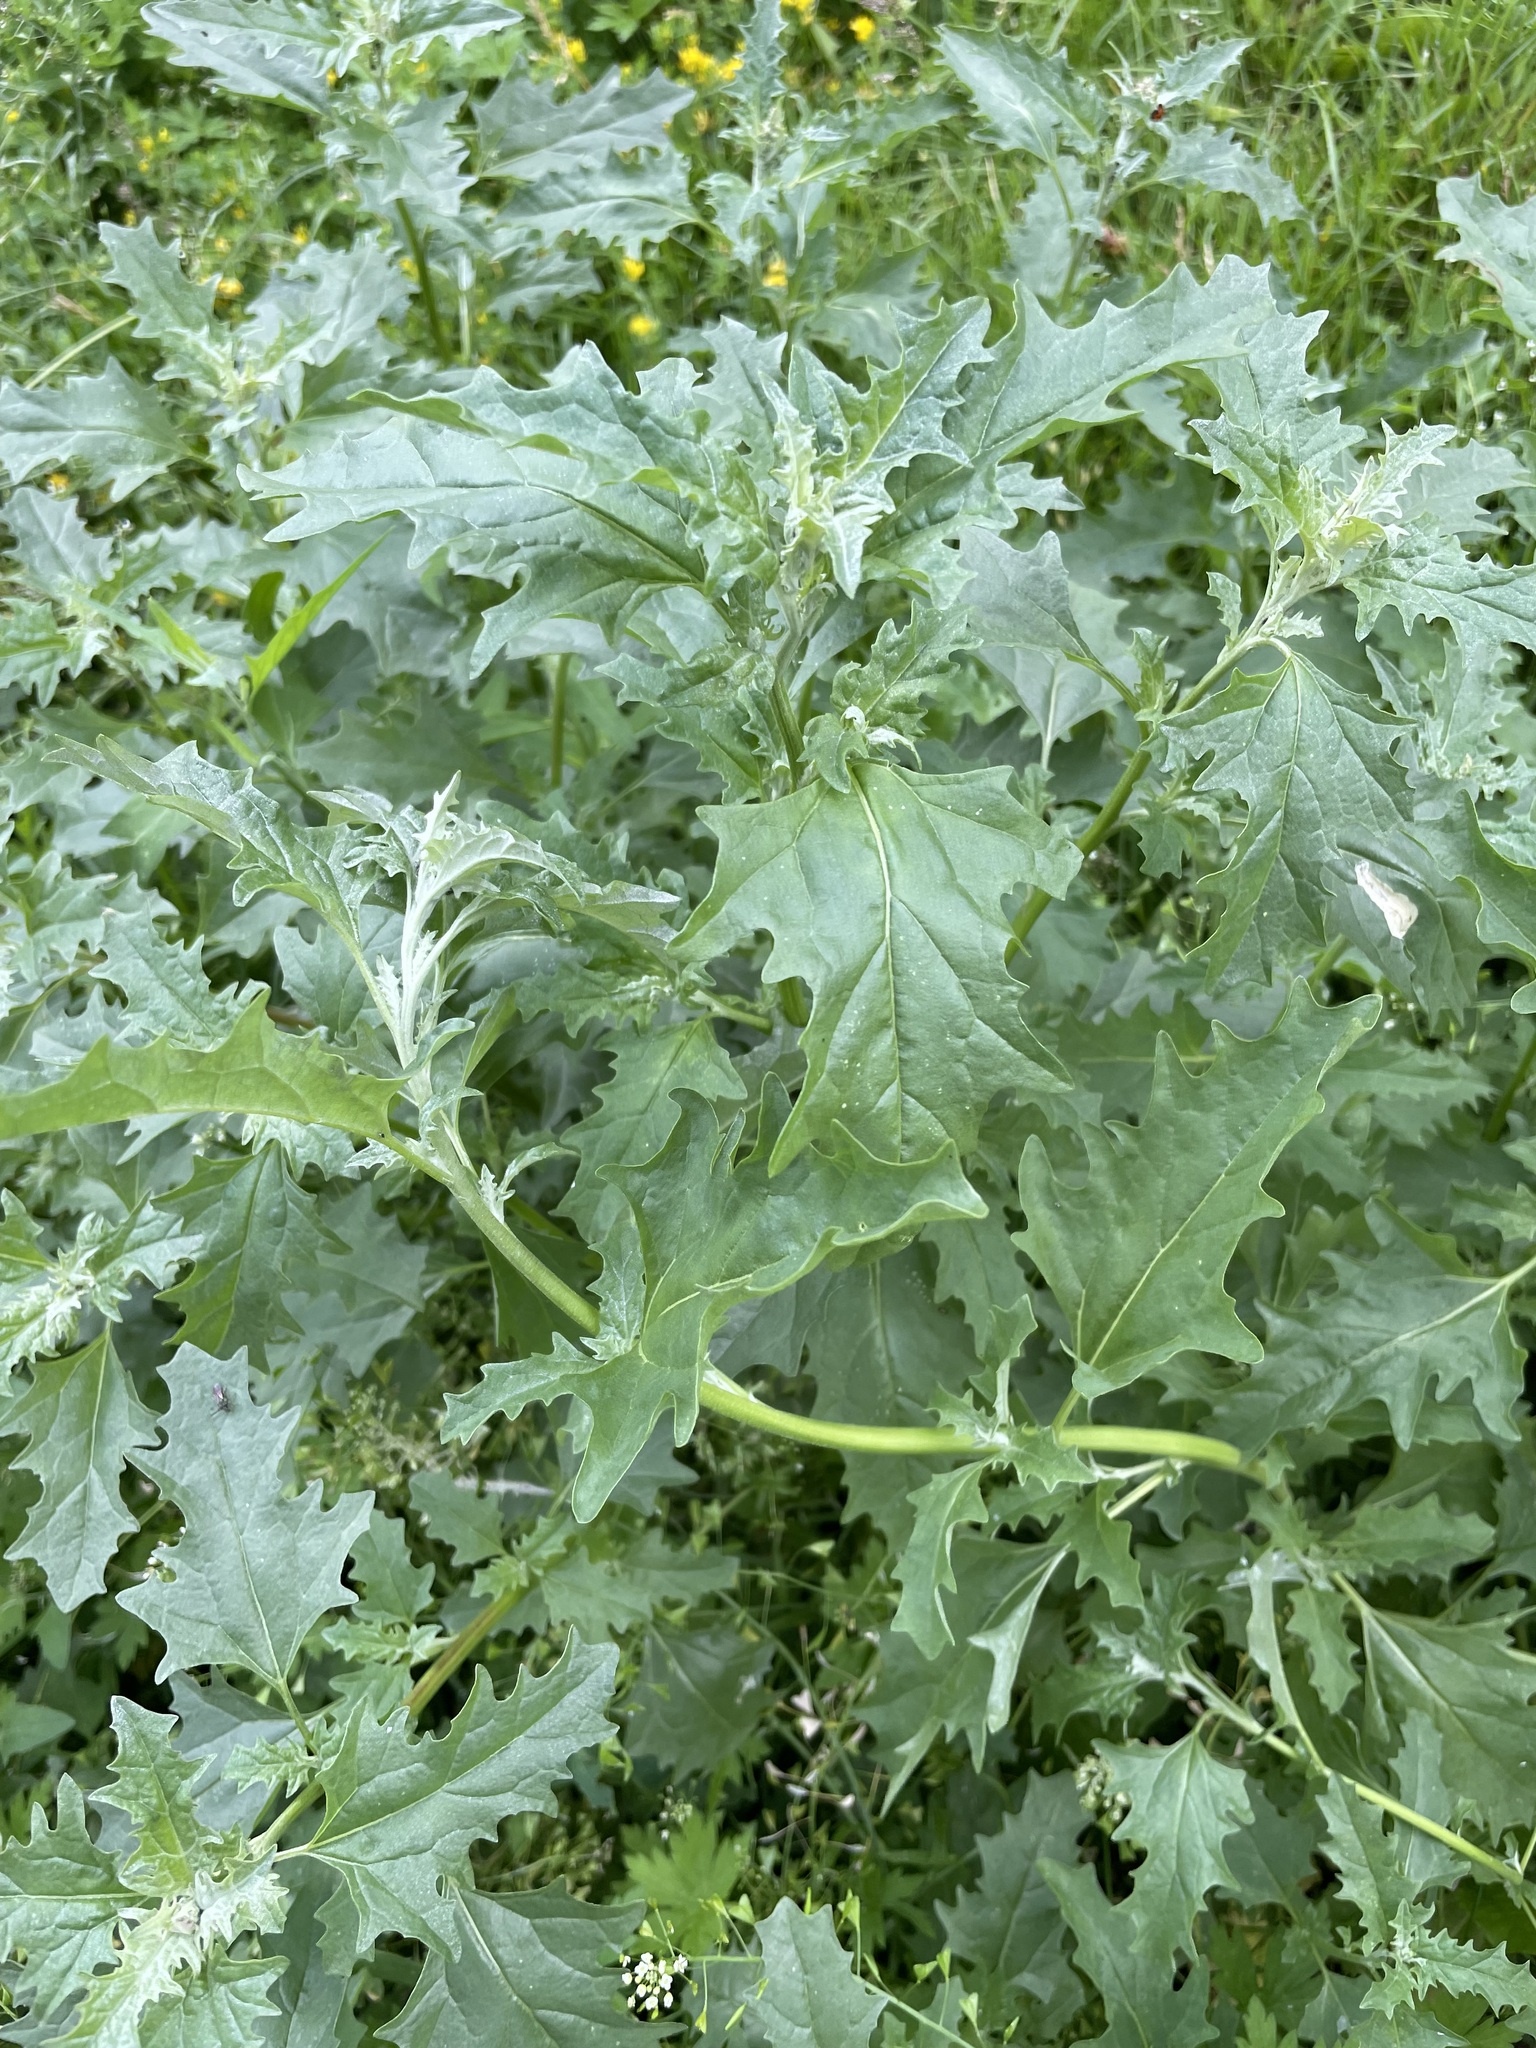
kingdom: Plantae
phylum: Tracheophyta
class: Magnoliopsida
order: Caryophyllales
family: Amaranthaceae
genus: Atriplex
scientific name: Atriplex tatarica
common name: Tatarian orache
